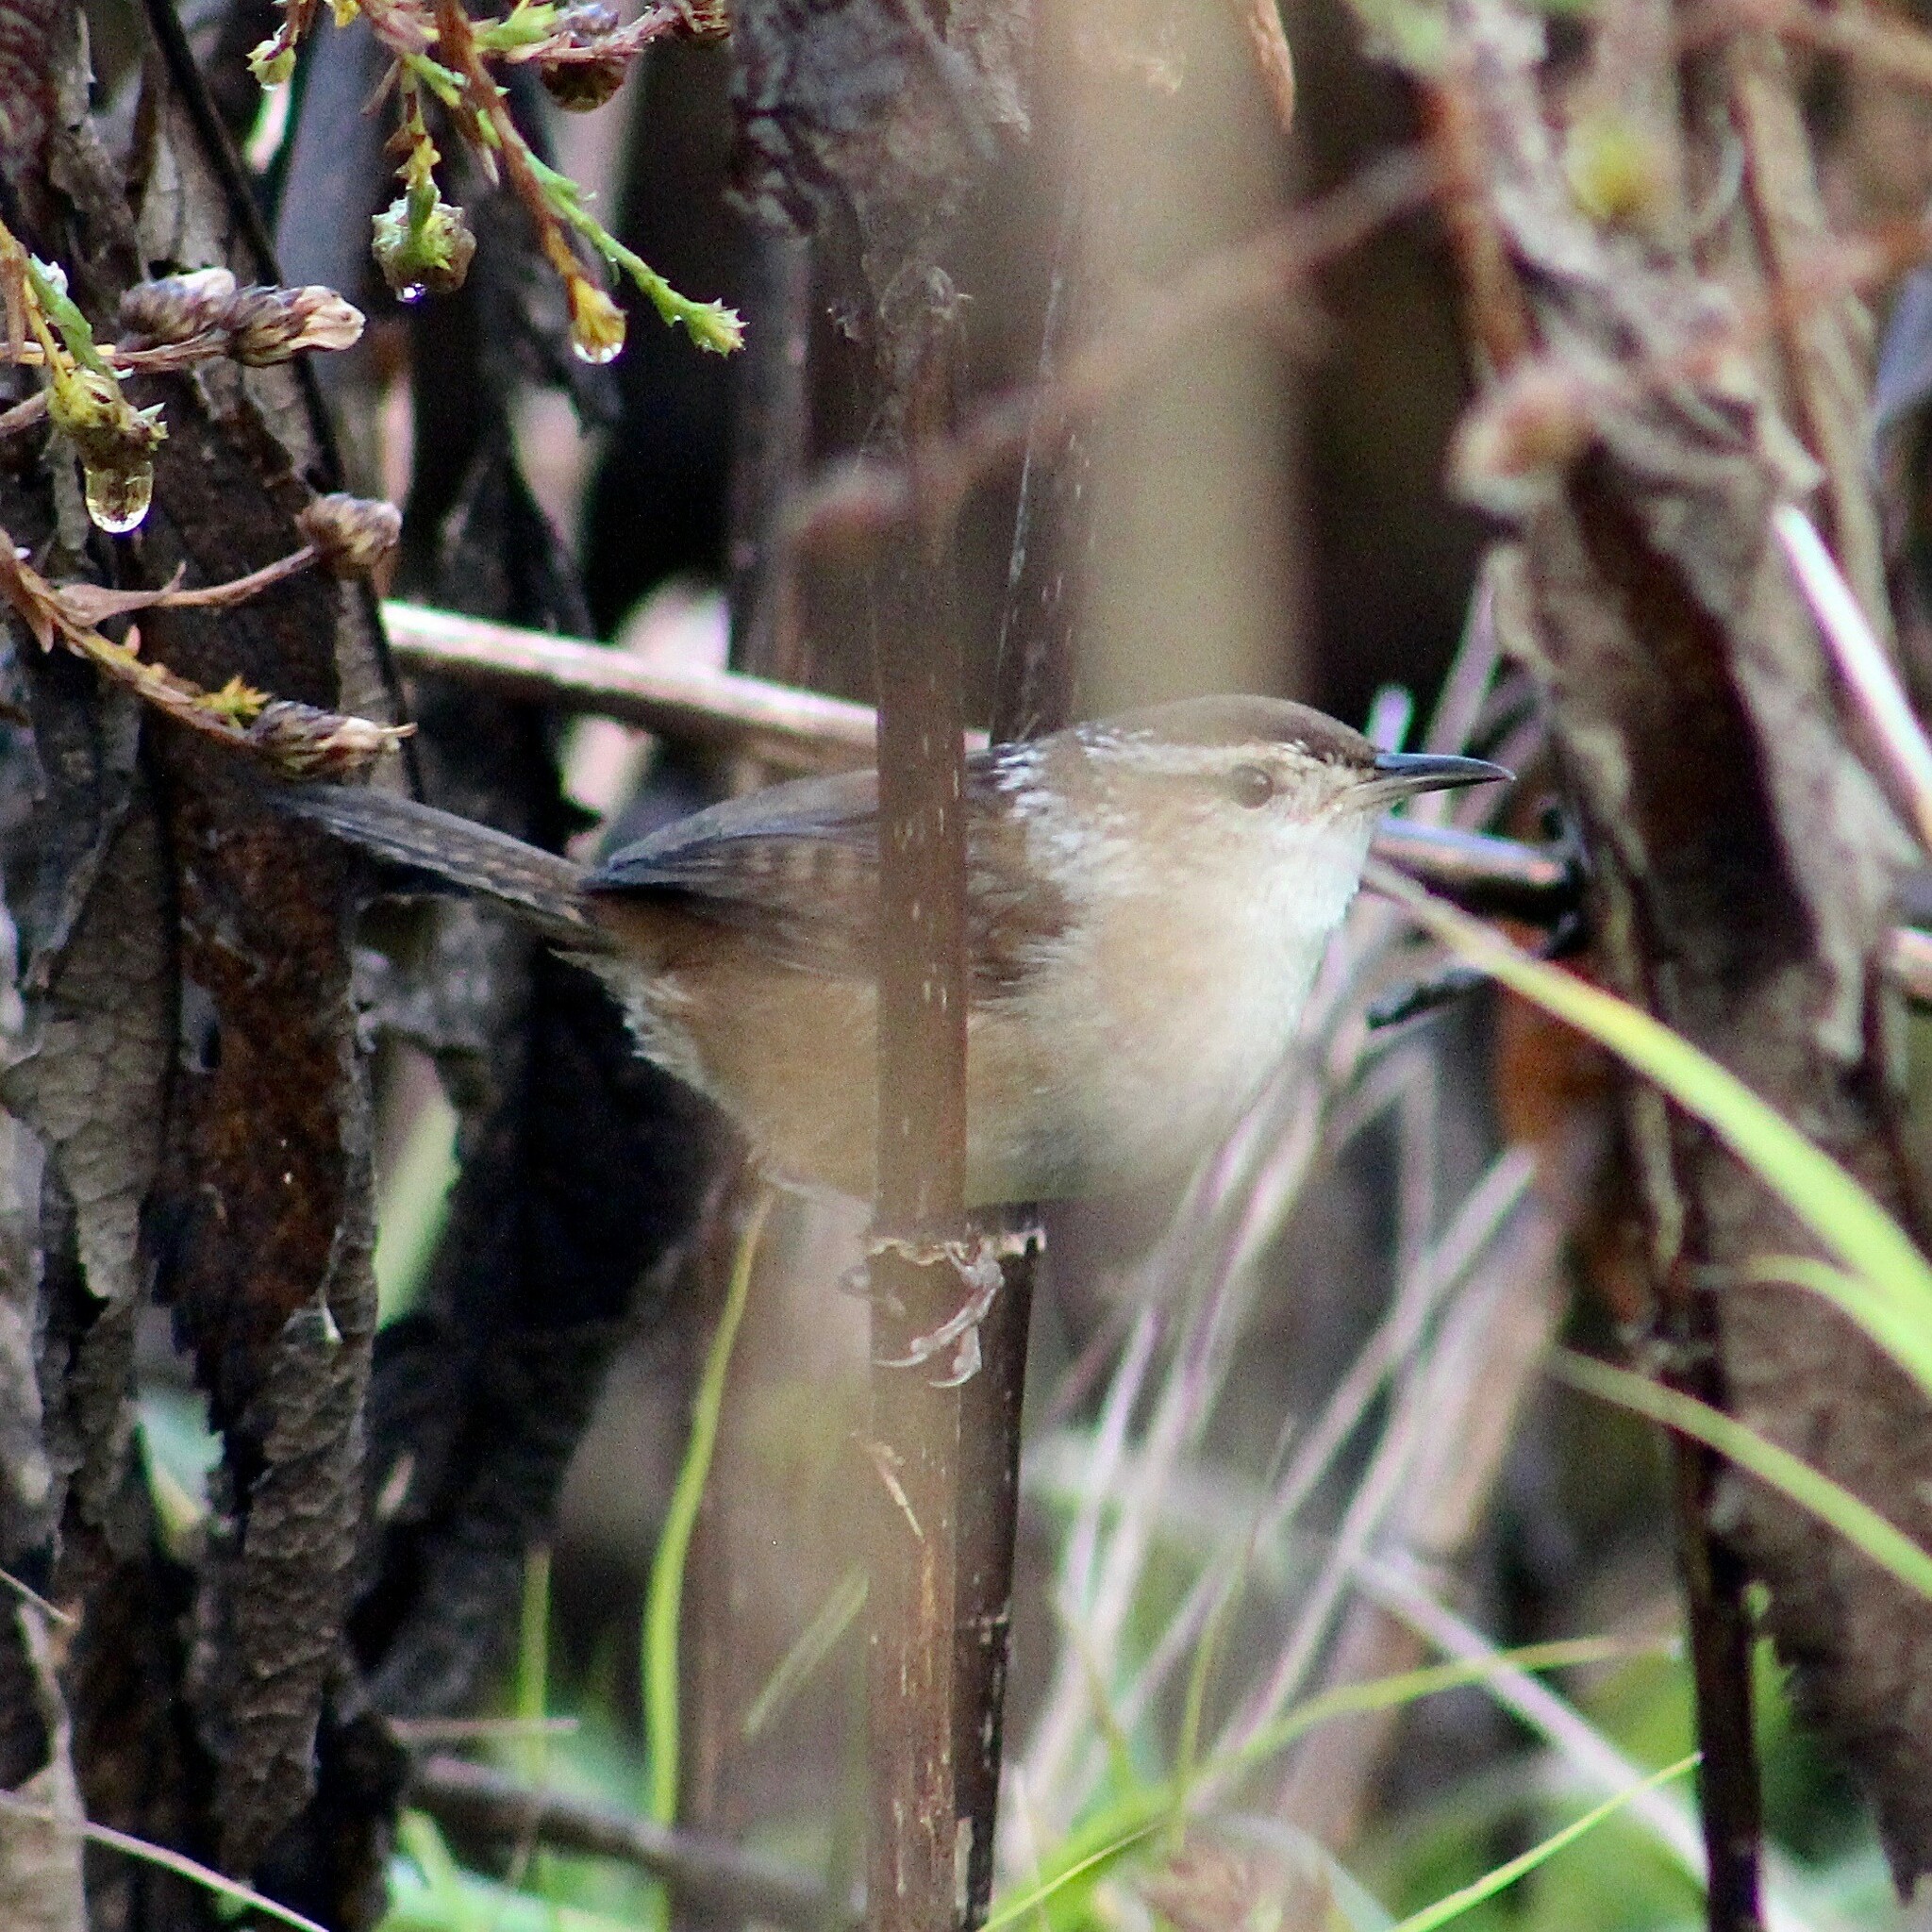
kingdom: Animalia
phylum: Chordata
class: Aves
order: Passeriformes
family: Troglodytidae
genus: Cistothorus
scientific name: Cistothorus palustris
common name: Marsh wren
